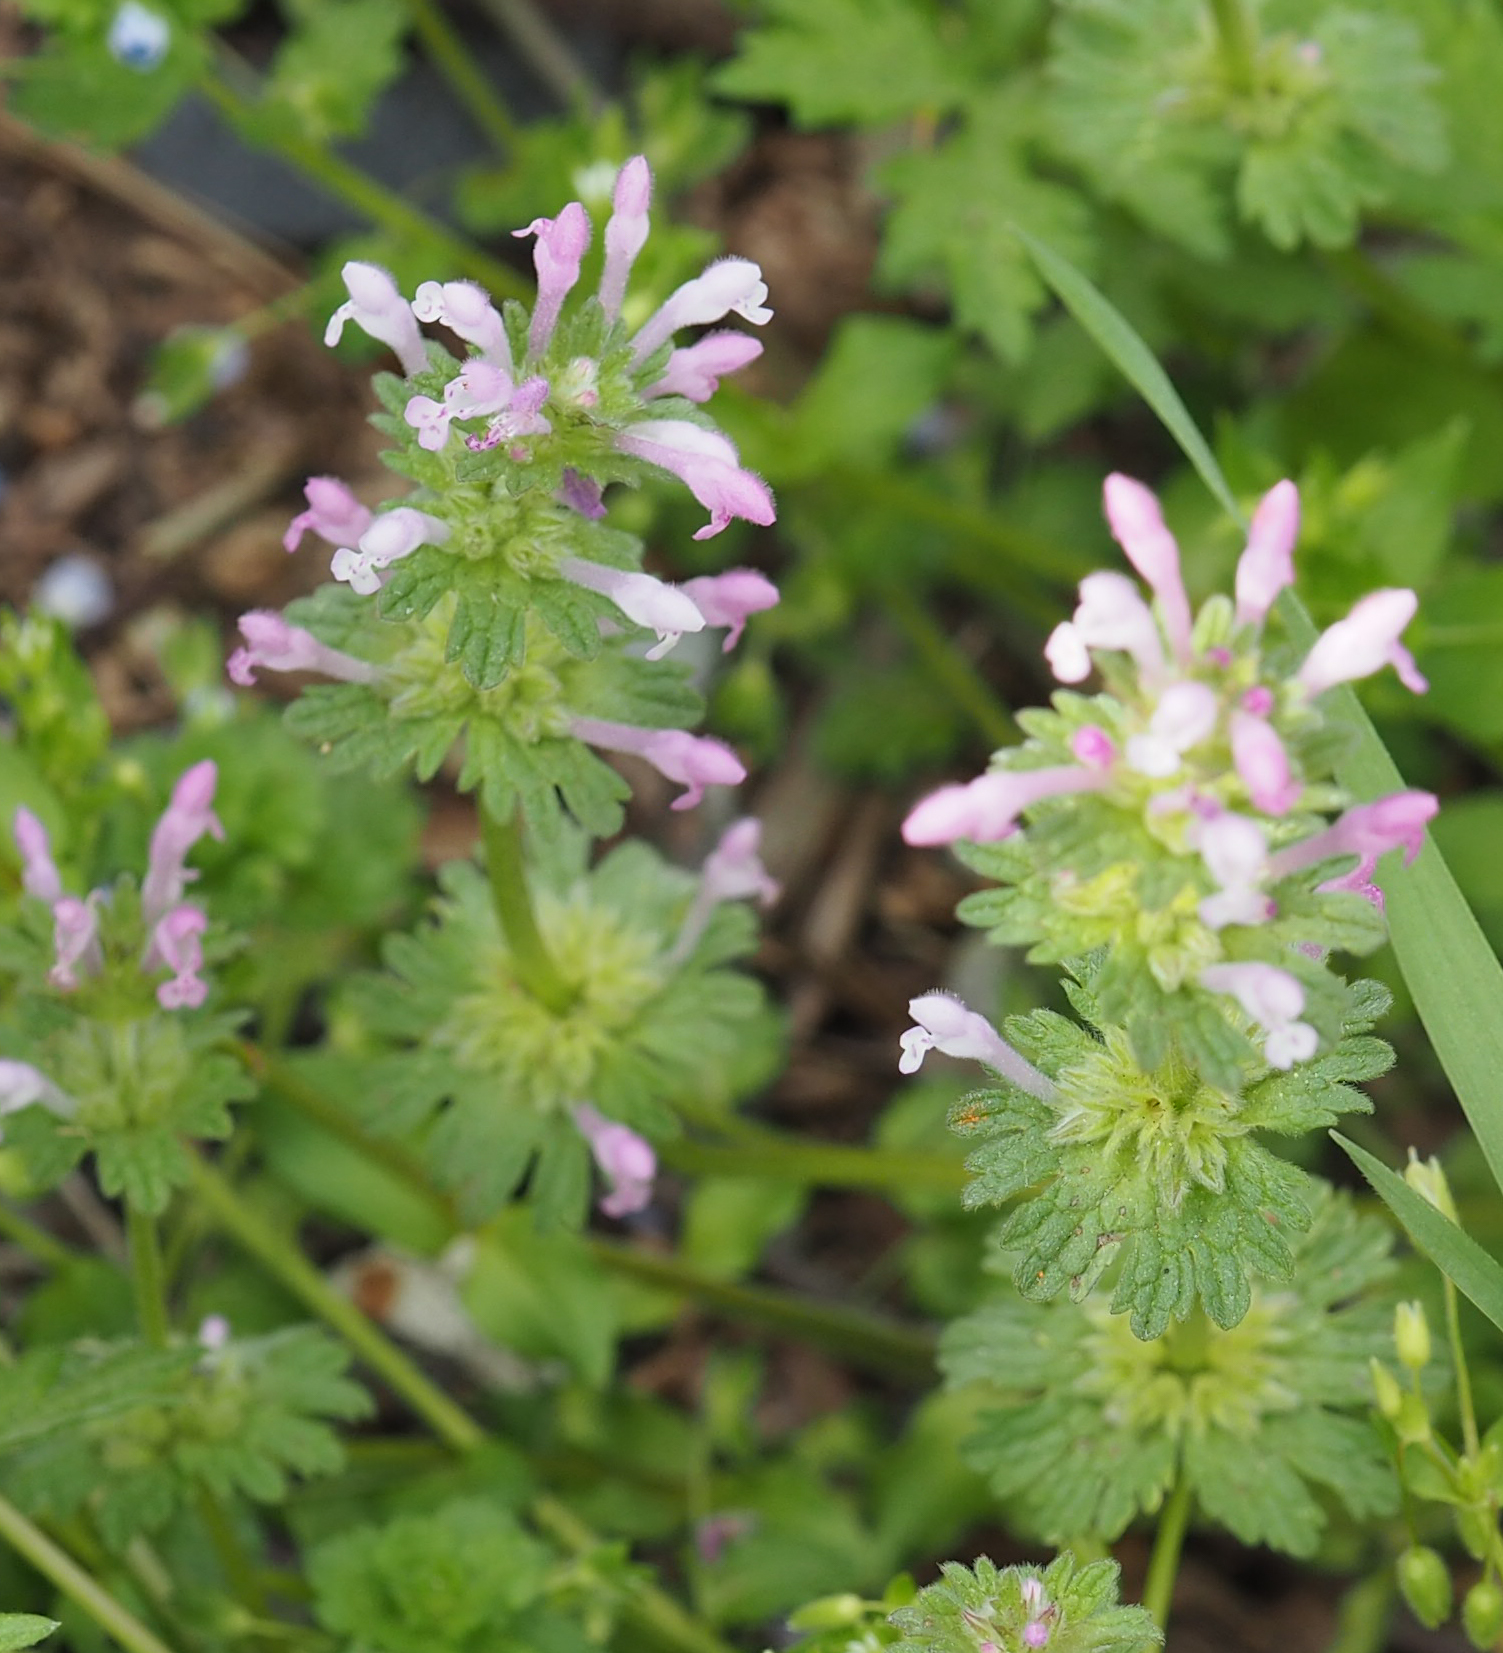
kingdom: Plantae
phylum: Tracheophyta
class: Magnoliopsida
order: Lamiales
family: Lamiaceae
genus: Lamium
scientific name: Lamium amplexicaule
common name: Henbit dead-nettle
